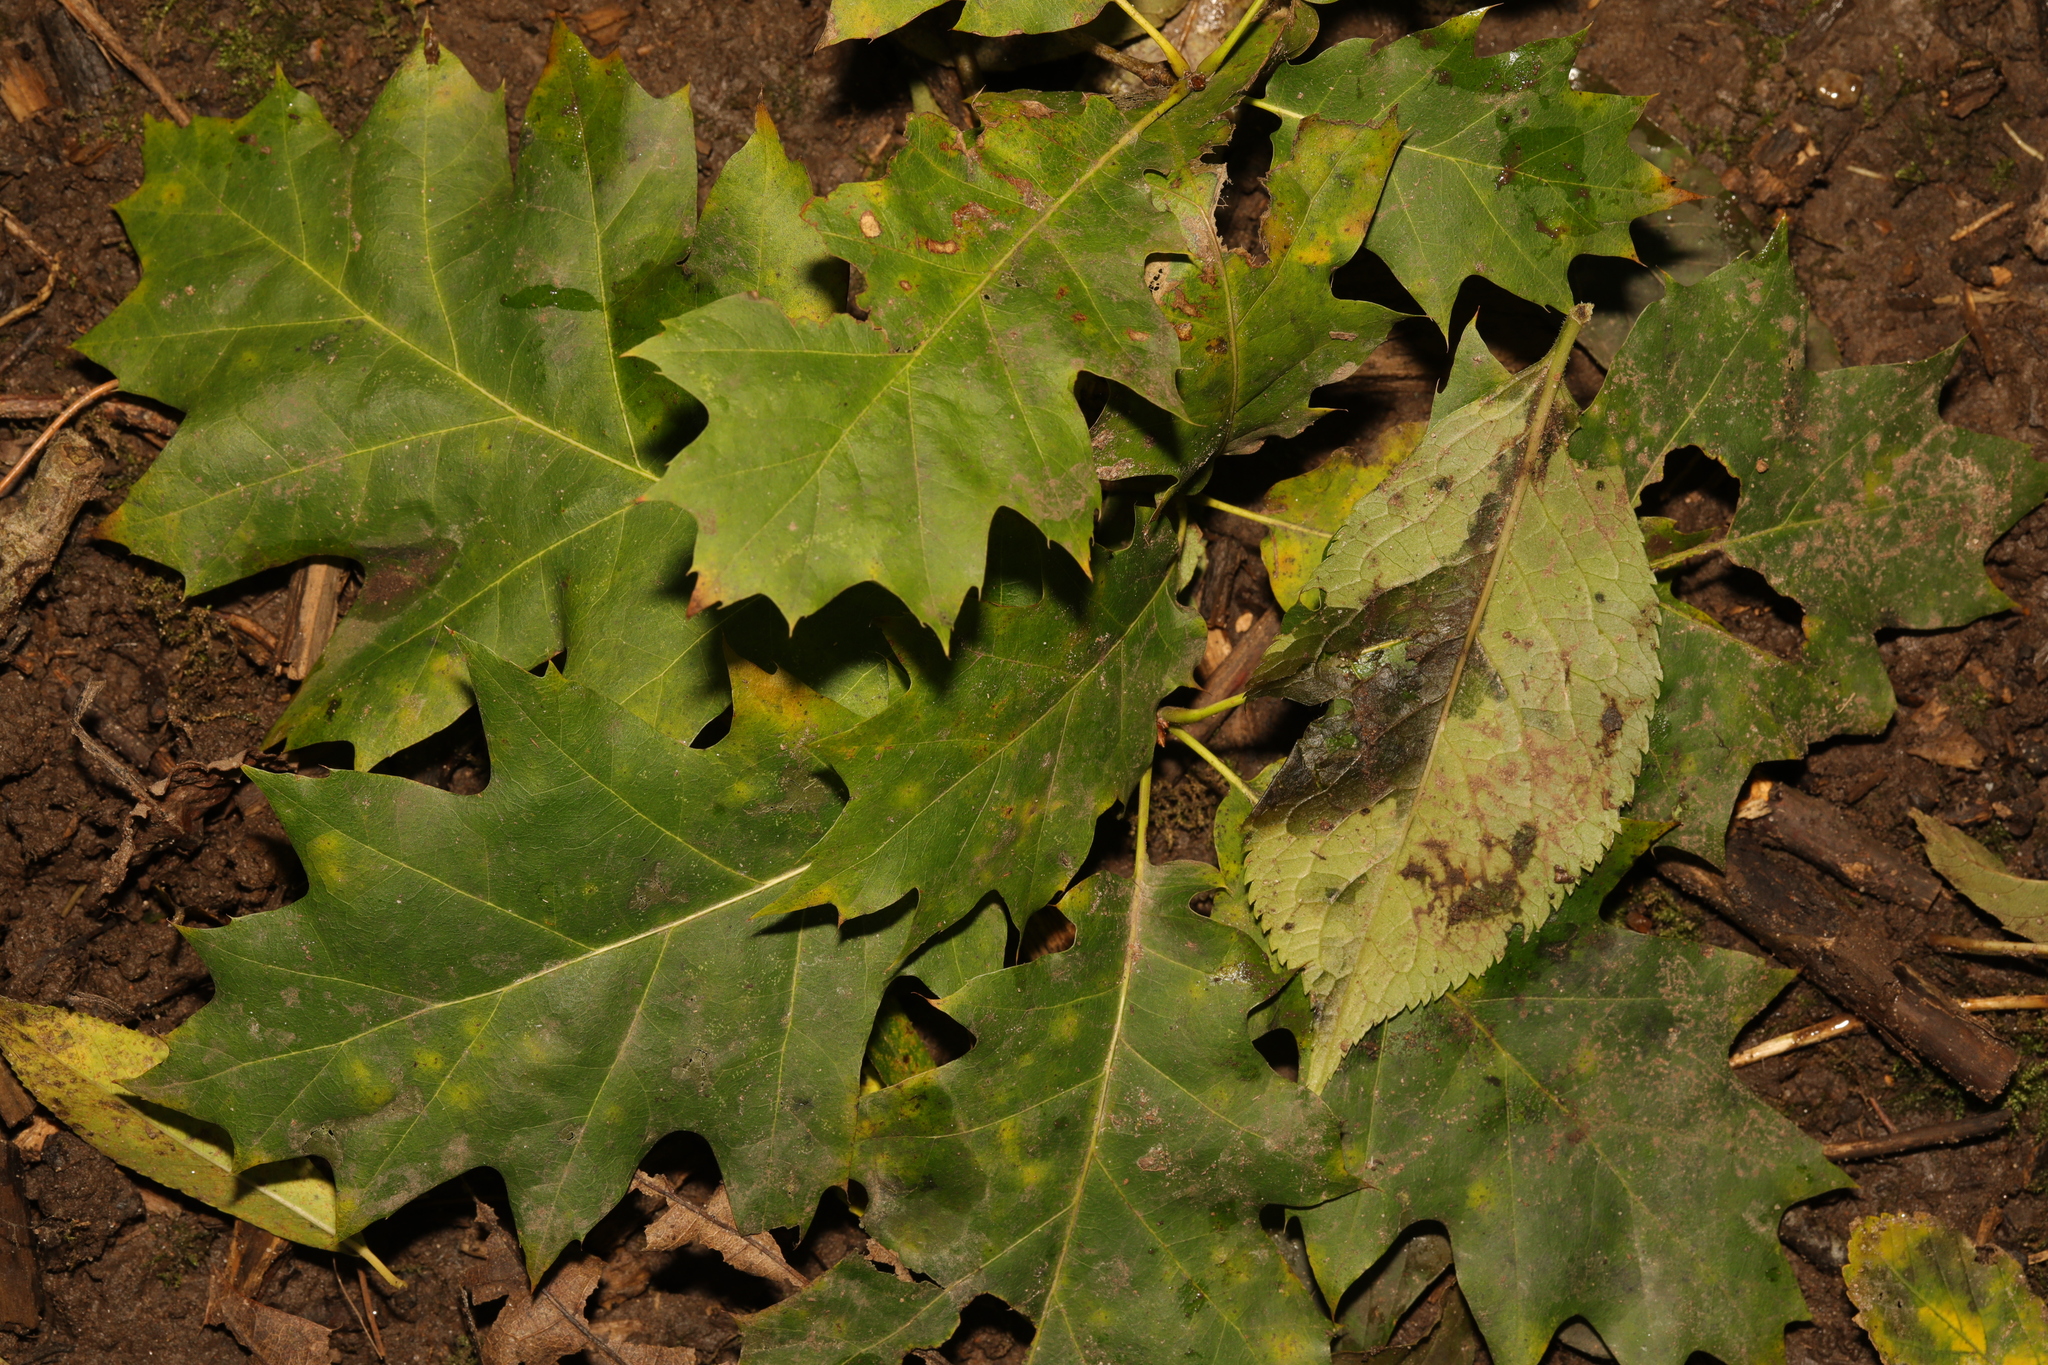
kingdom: Plantae
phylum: Tracheophyta
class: Magnoliopsida
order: Fagales
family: Fagaceae
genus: Quercus
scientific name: Quercus rubra
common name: Red oak
